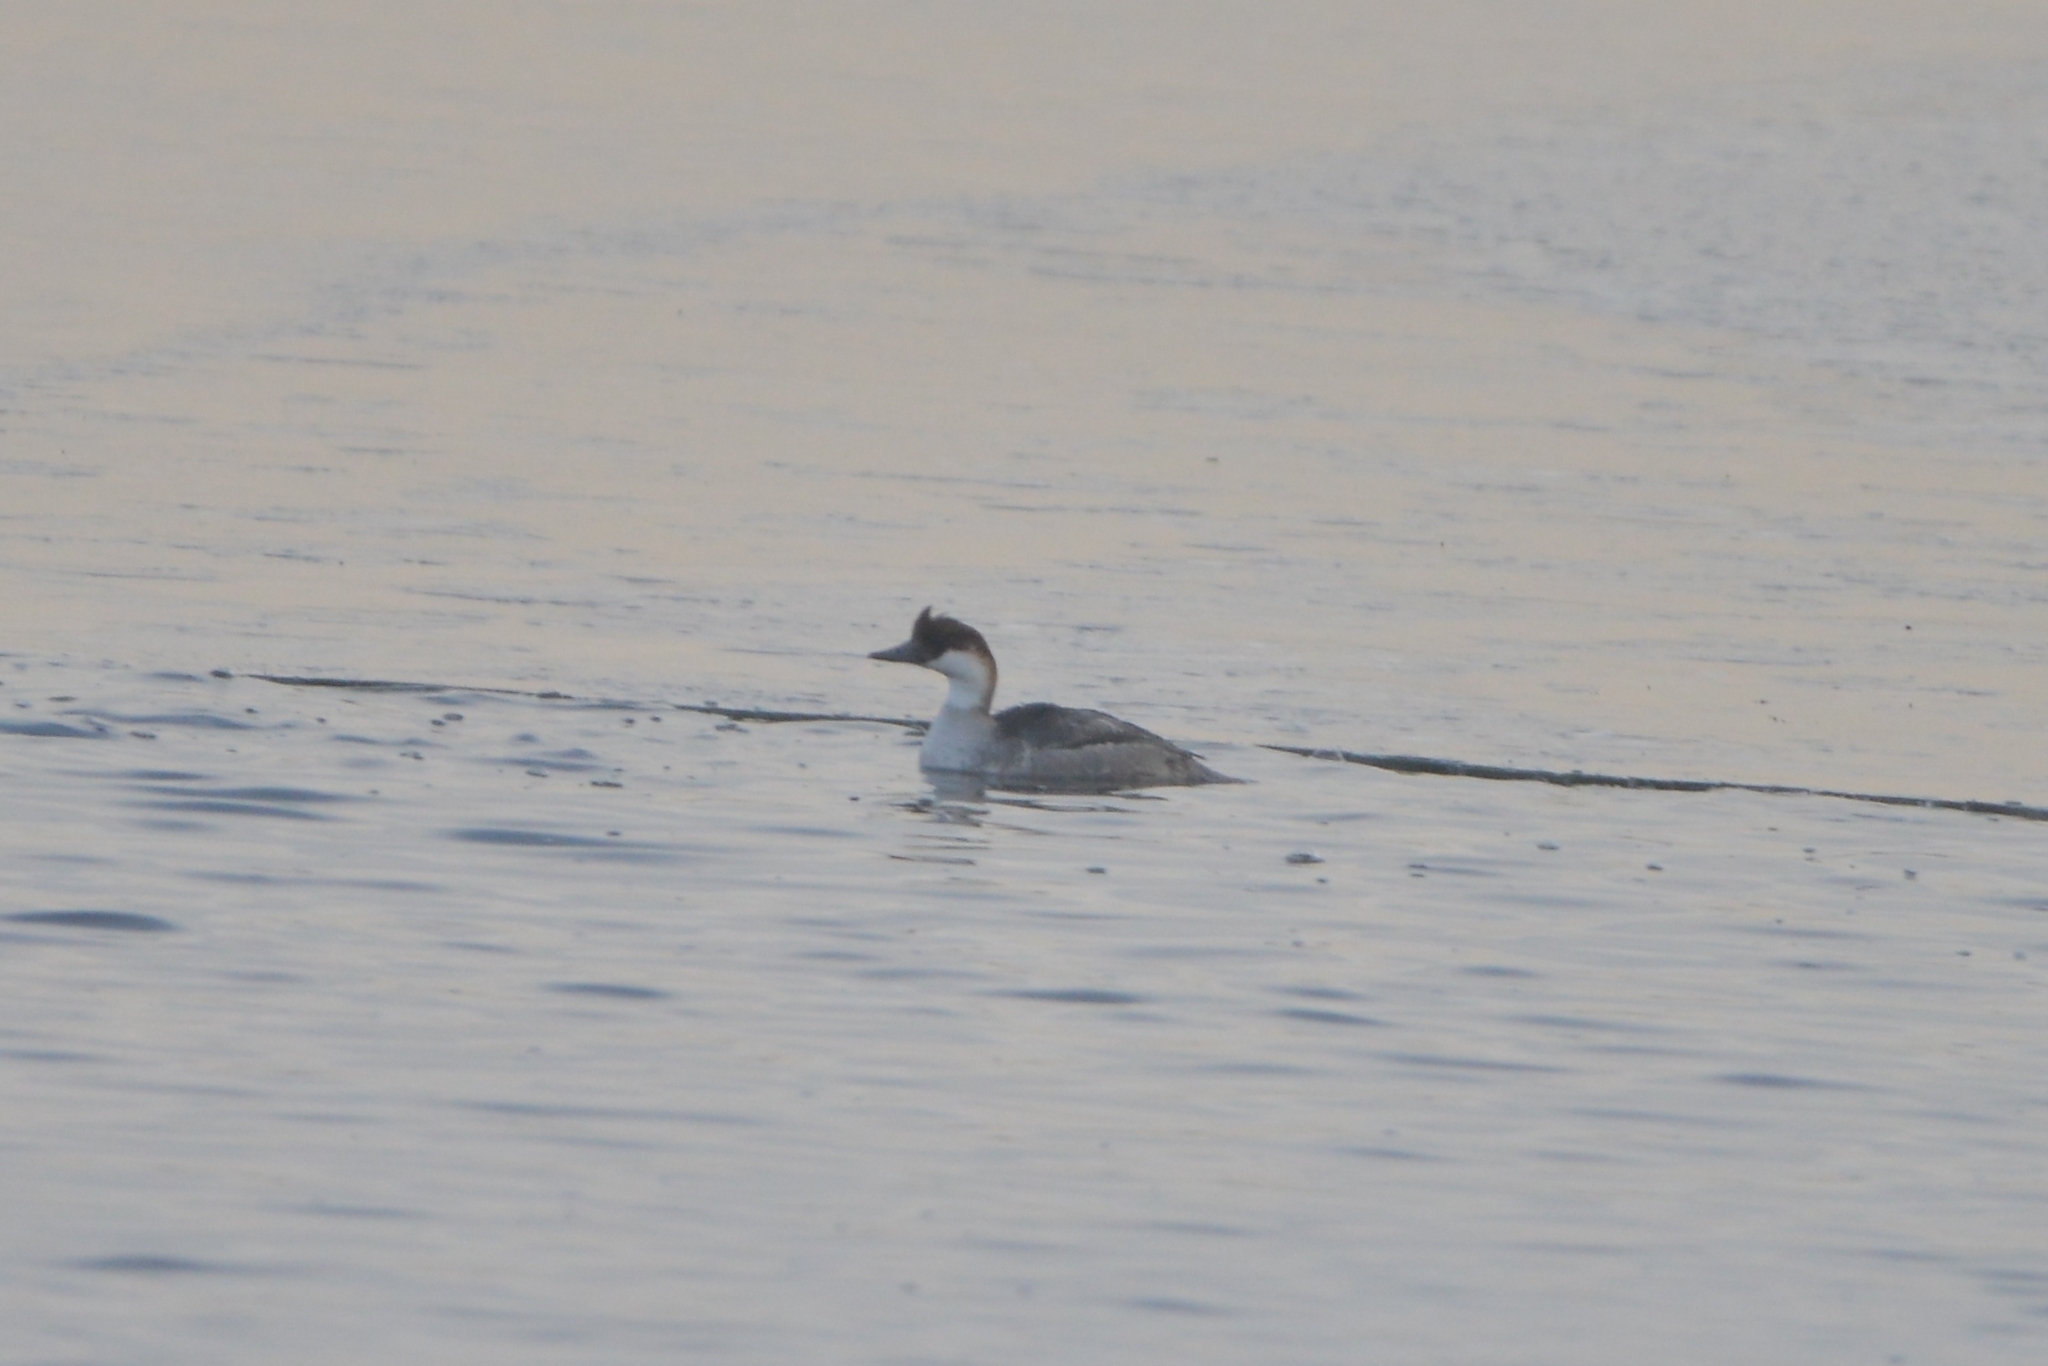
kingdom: Animalia
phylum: Chordata
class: Aves
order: Anseriformes
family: Anatidae
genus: Mergellus
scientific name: Mergellus albellus
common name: Smew
